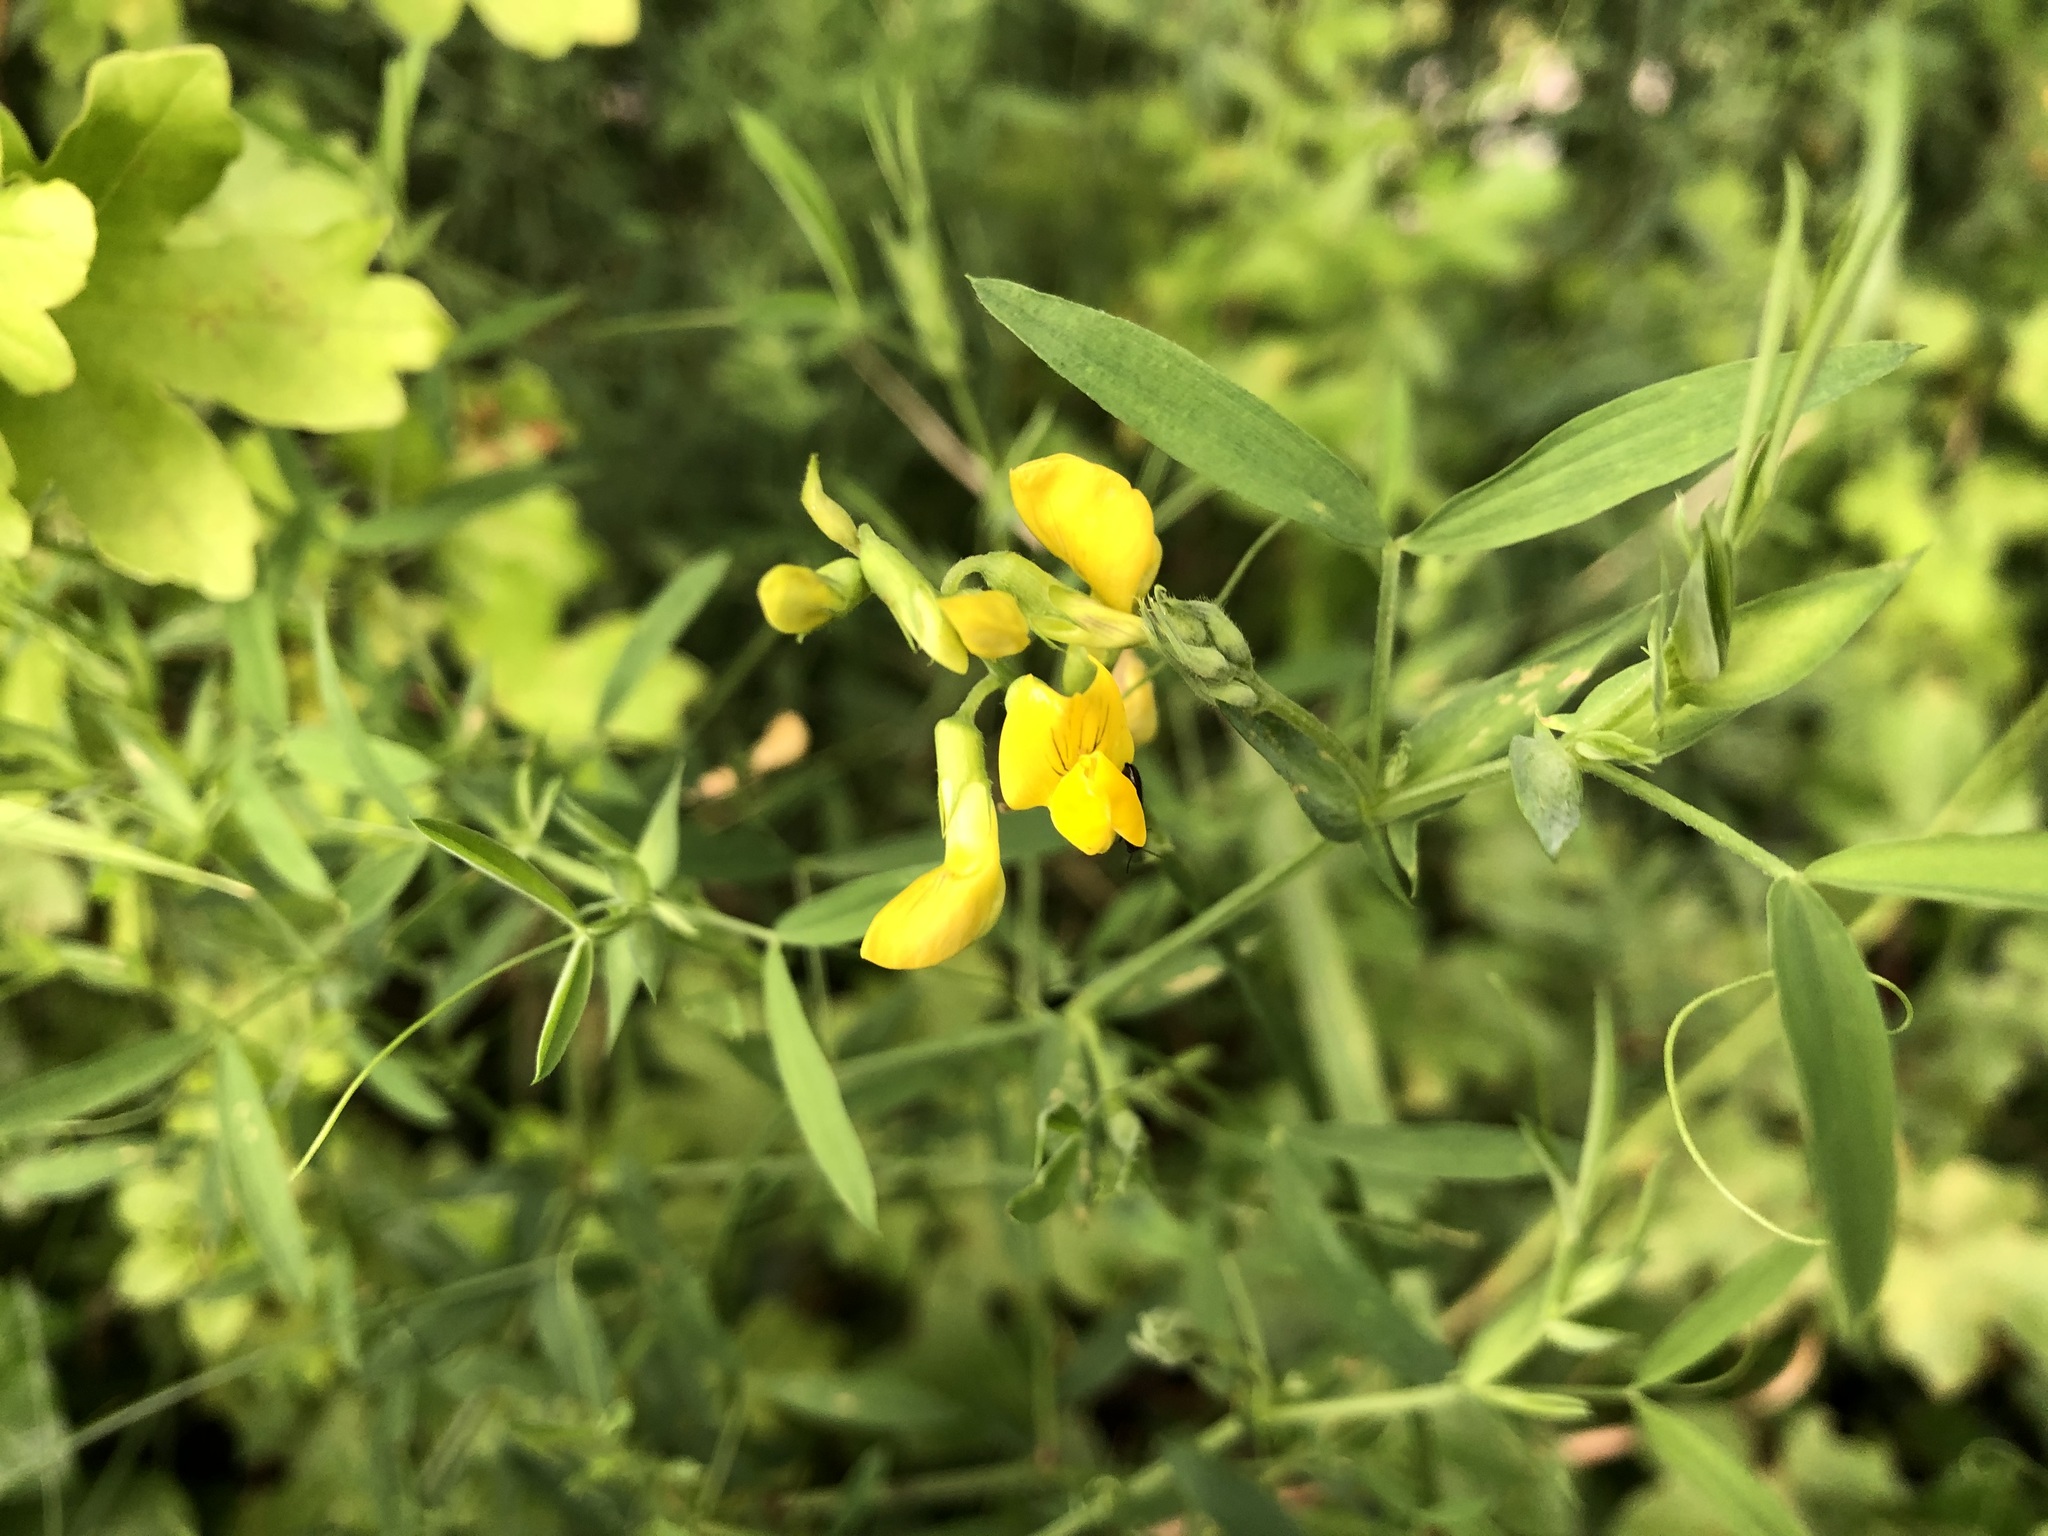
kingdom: Plantae
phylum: Tracheophyta
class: Magnoliopsida
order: Fabales
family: Fabaceae
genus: Lathyrus
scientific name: Lathyrus pratensis
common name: Meadow vetchling
